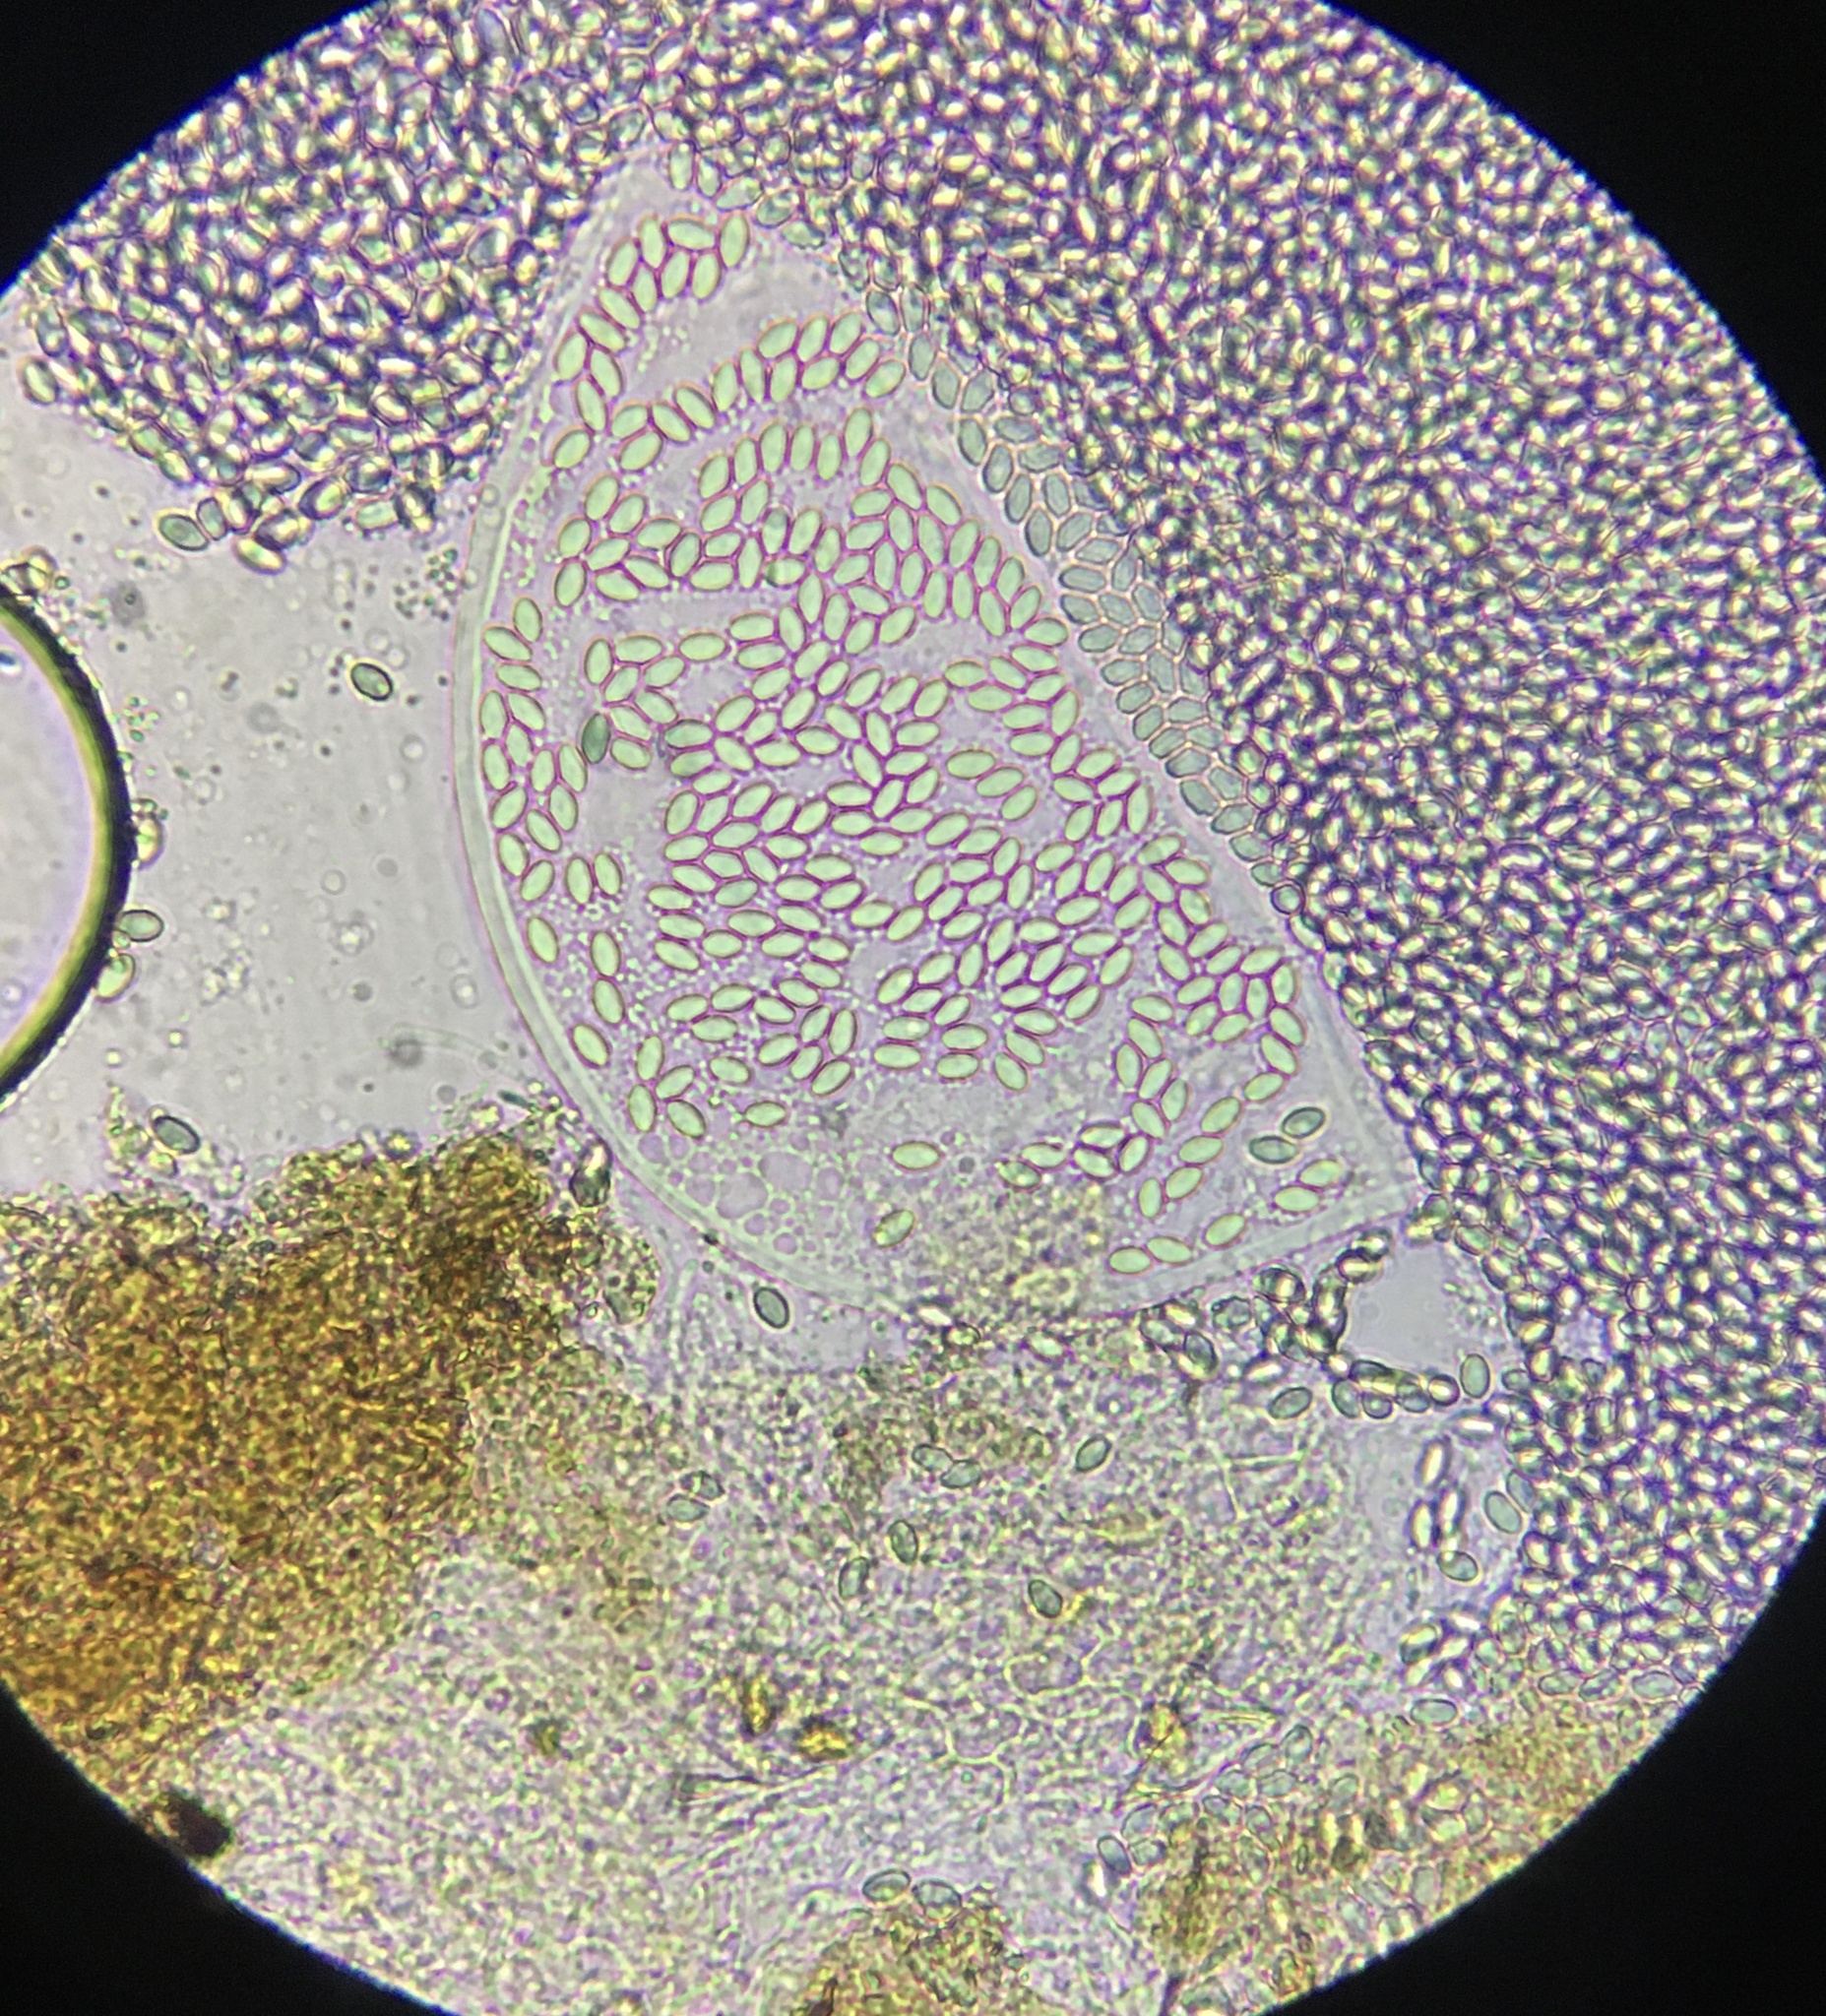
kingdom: Fungi
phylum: Ascomycota
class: Leotiomycetes
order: Thelebolales
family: Thelebolaceae
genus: Thelebolus
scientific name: Thelebolus stercoreus
